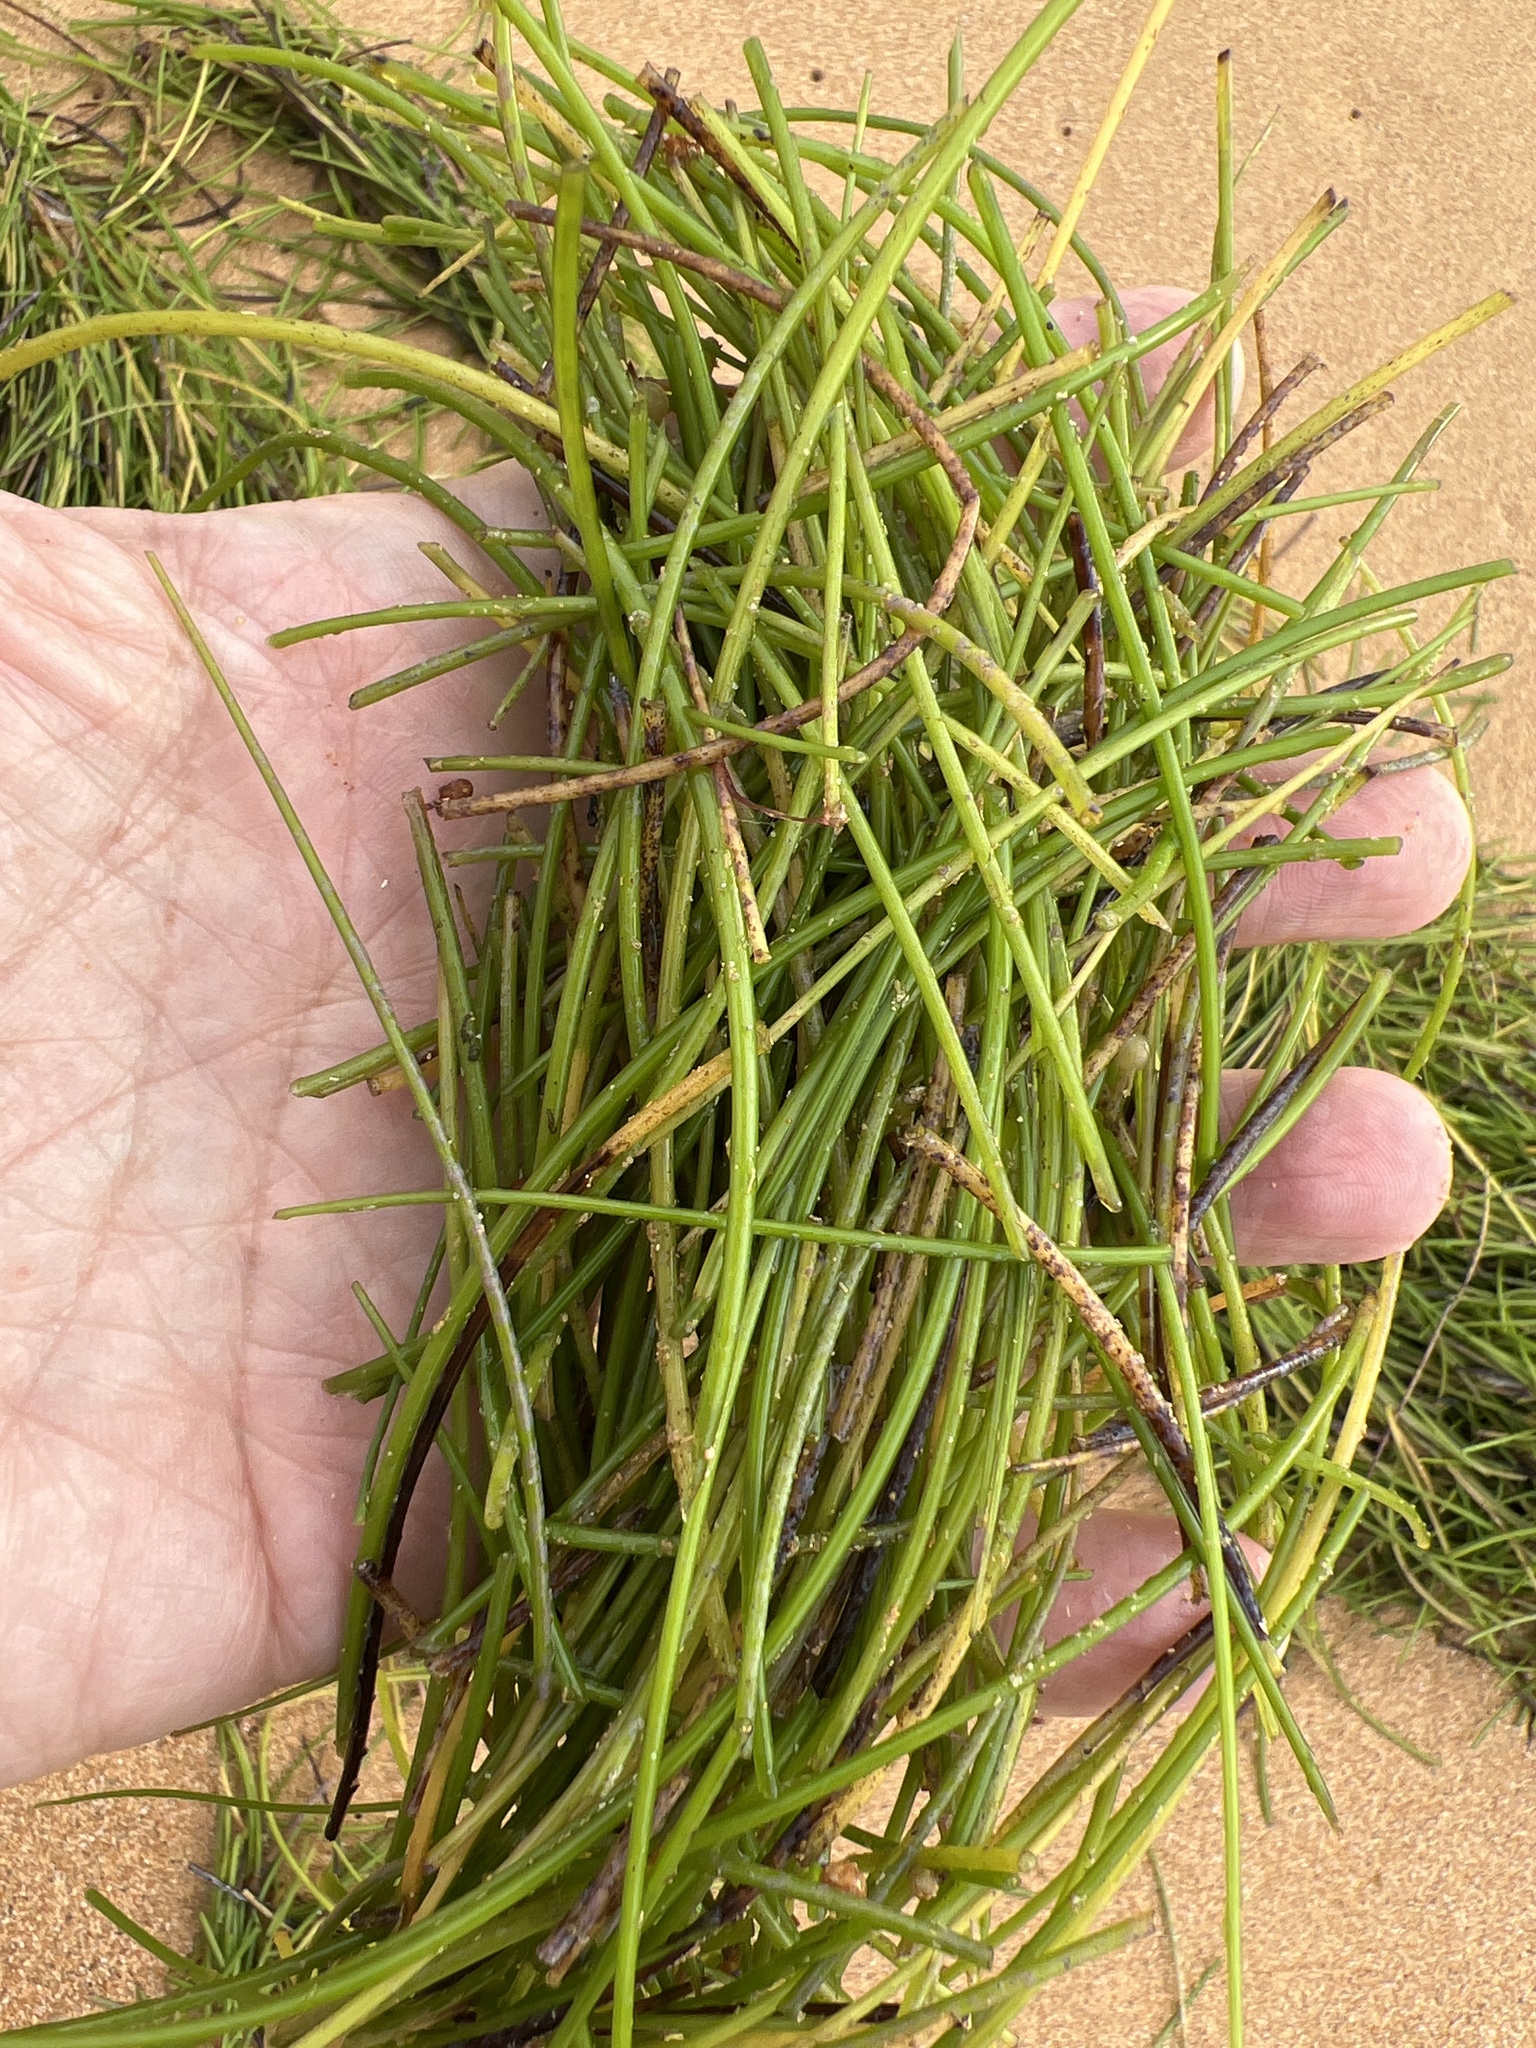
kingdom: Plantae
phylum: Tracheophyta
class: Liliopsida
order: Alismatales
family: Cymodoceaceae
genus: Syringodium
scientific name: Syringodium filiforme
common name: Manatee grass
